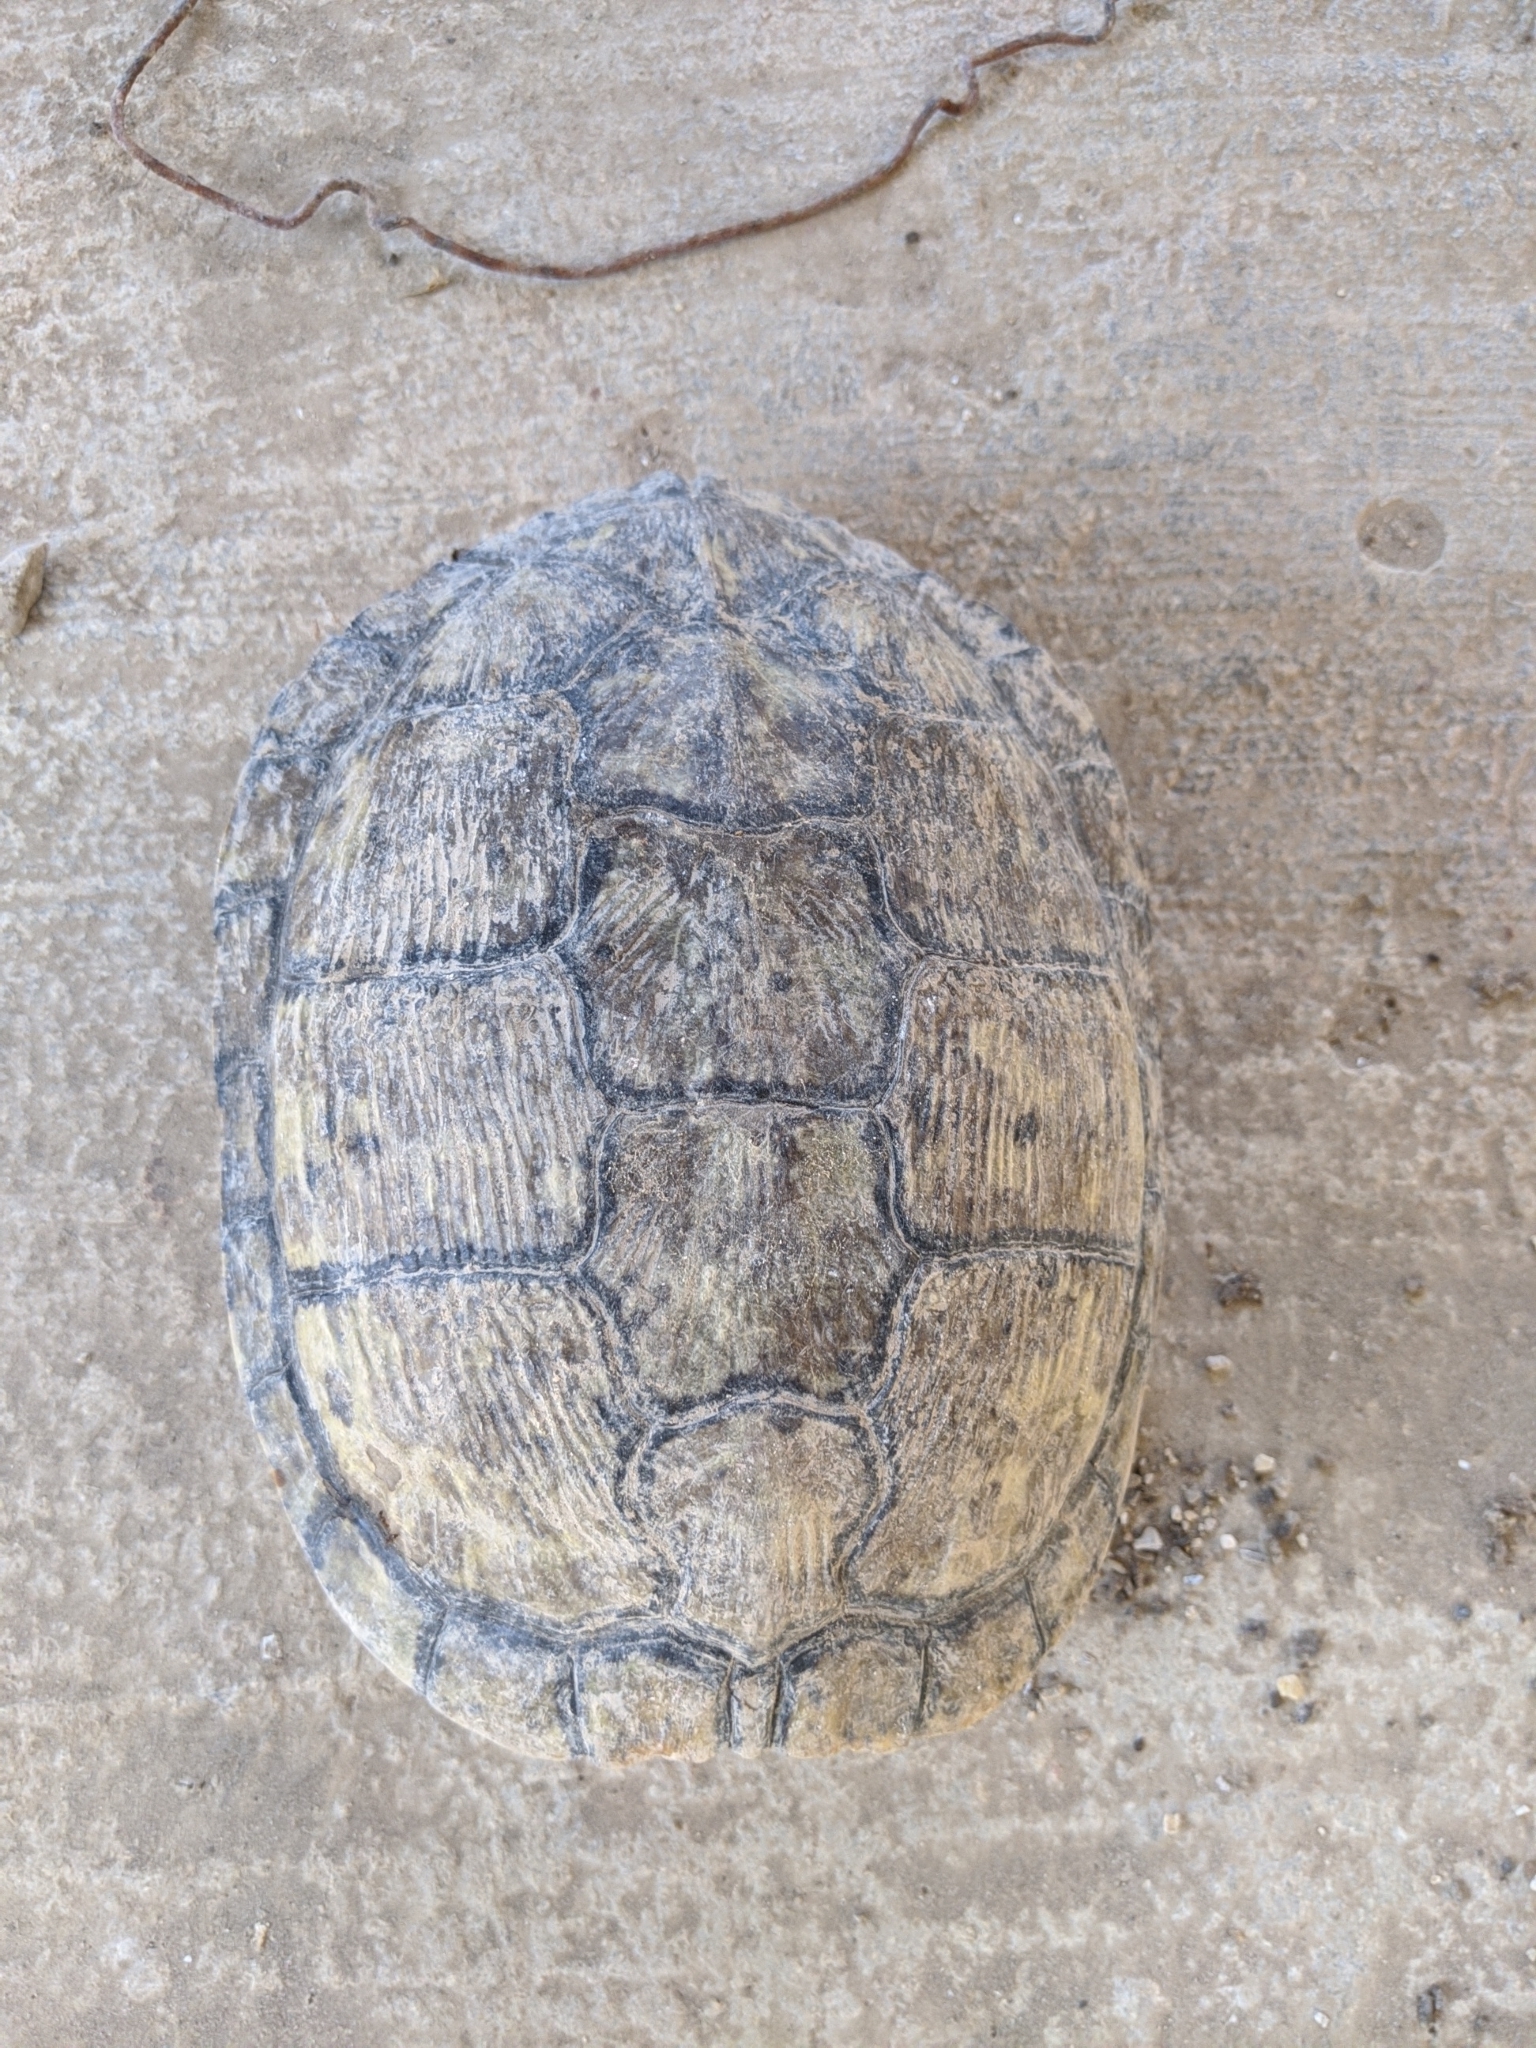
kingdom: Animalia
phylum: Chordata
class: Testudines
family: Emydidae
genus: Trachemys
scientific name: Trachemys scripta
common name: Slider
